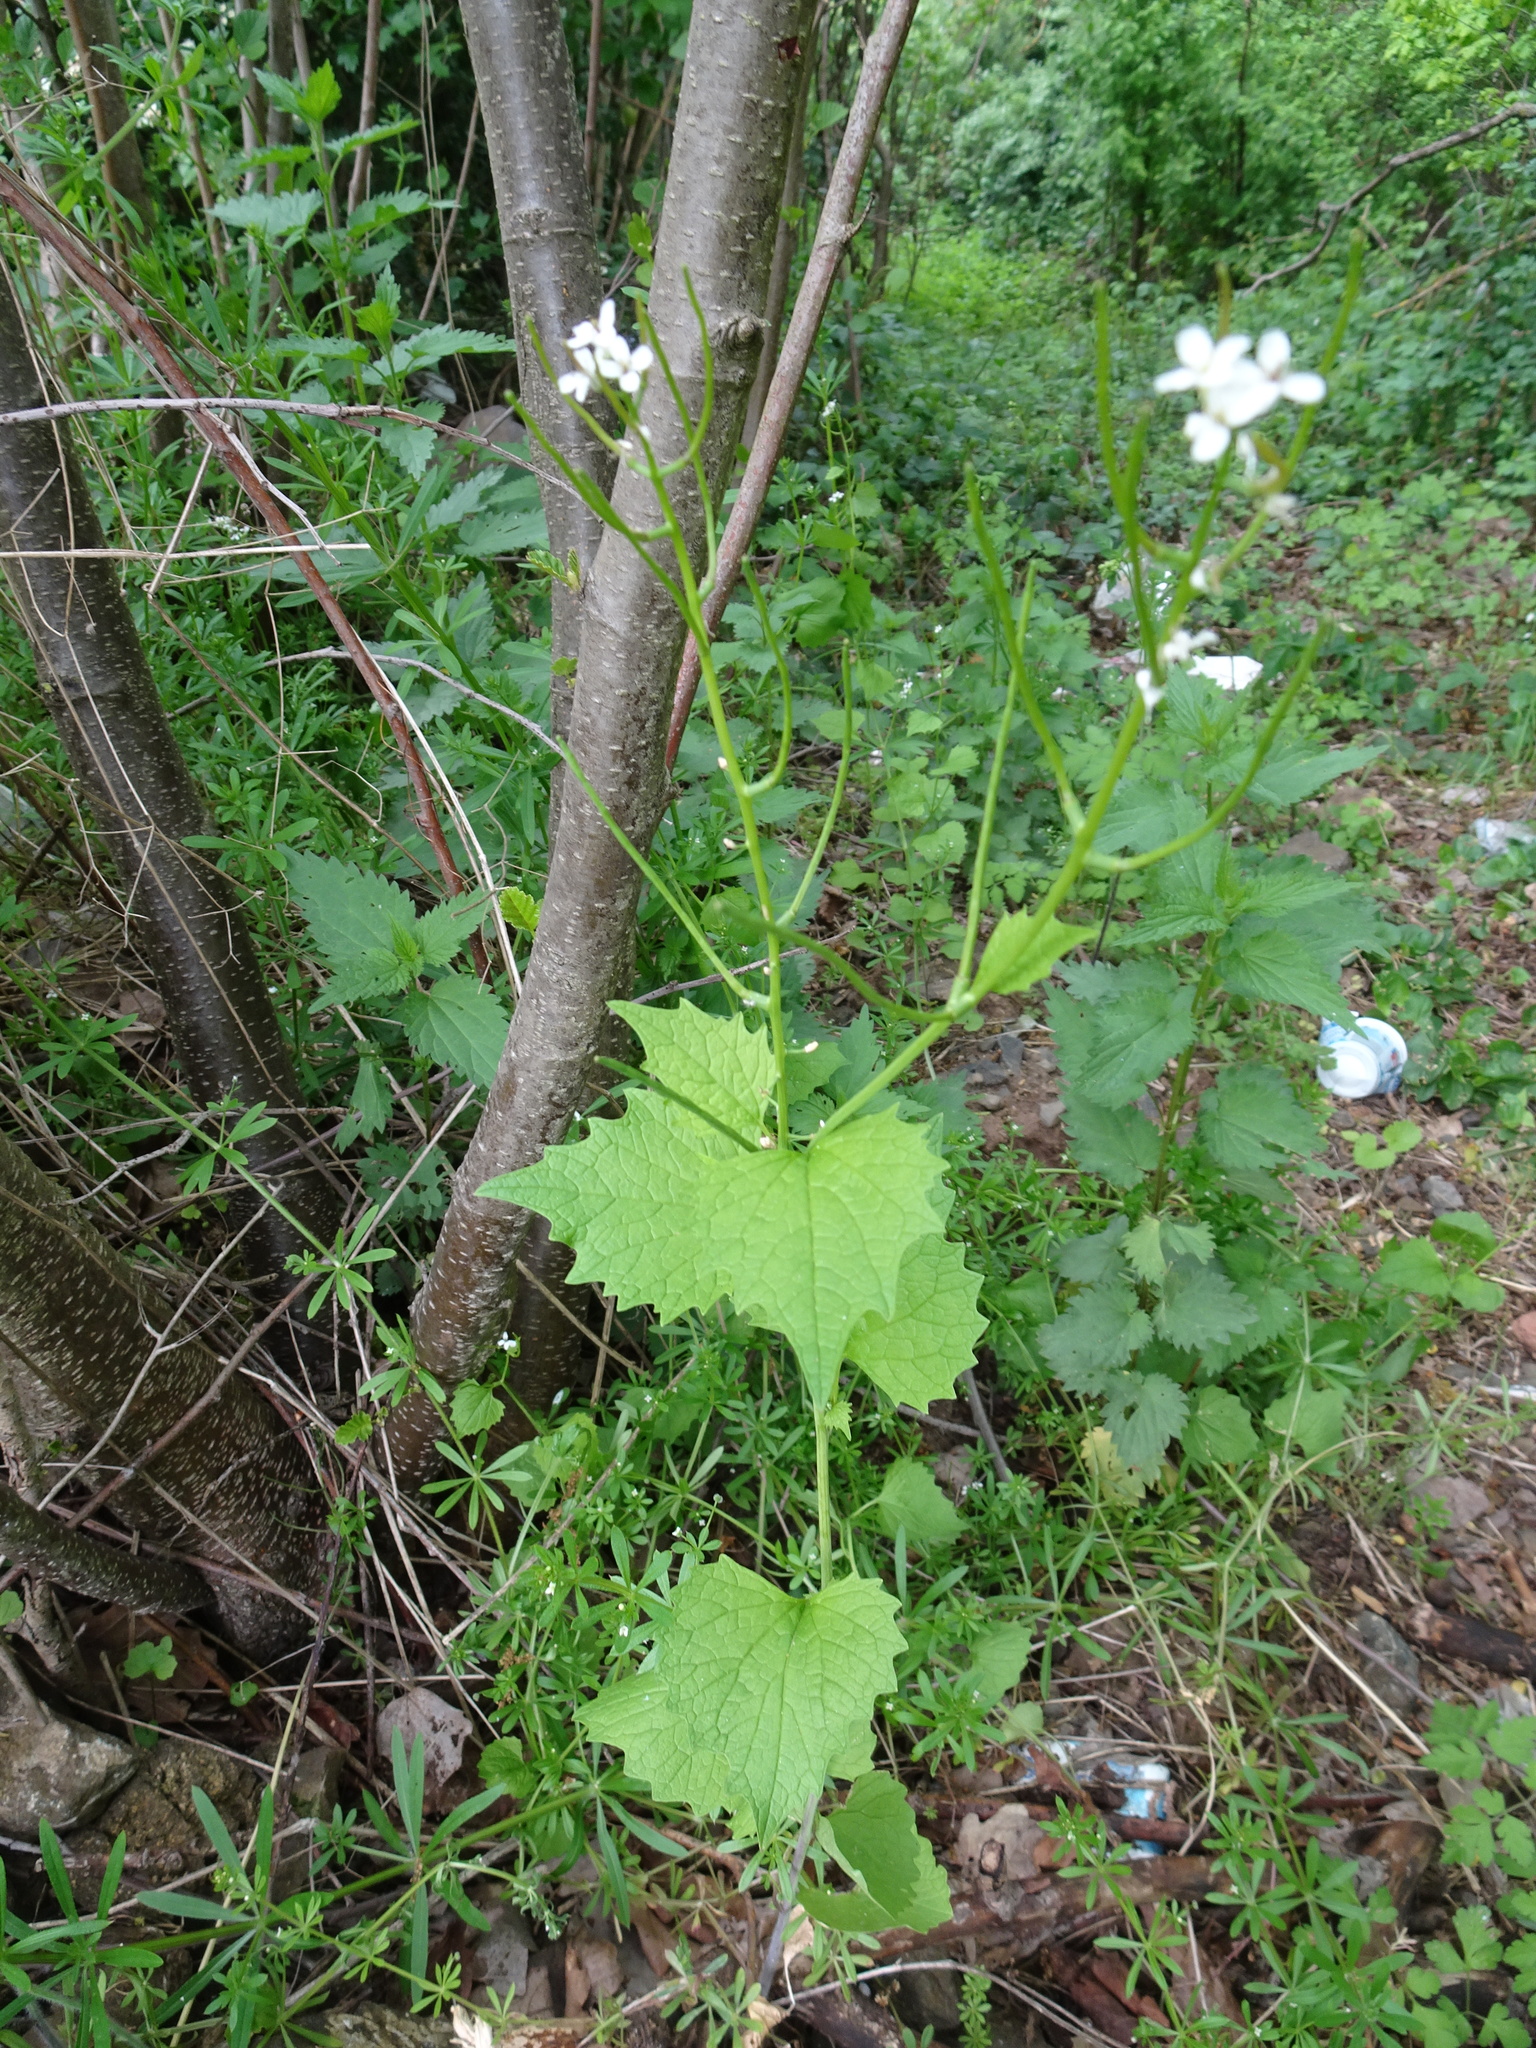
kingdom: Plantae
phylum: Tracheophyta
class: Magnoliopsida
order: Brassicales
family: Brassicaceae
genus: Alliaria
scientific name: Alliaria petiolata
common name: Garlic mustard
